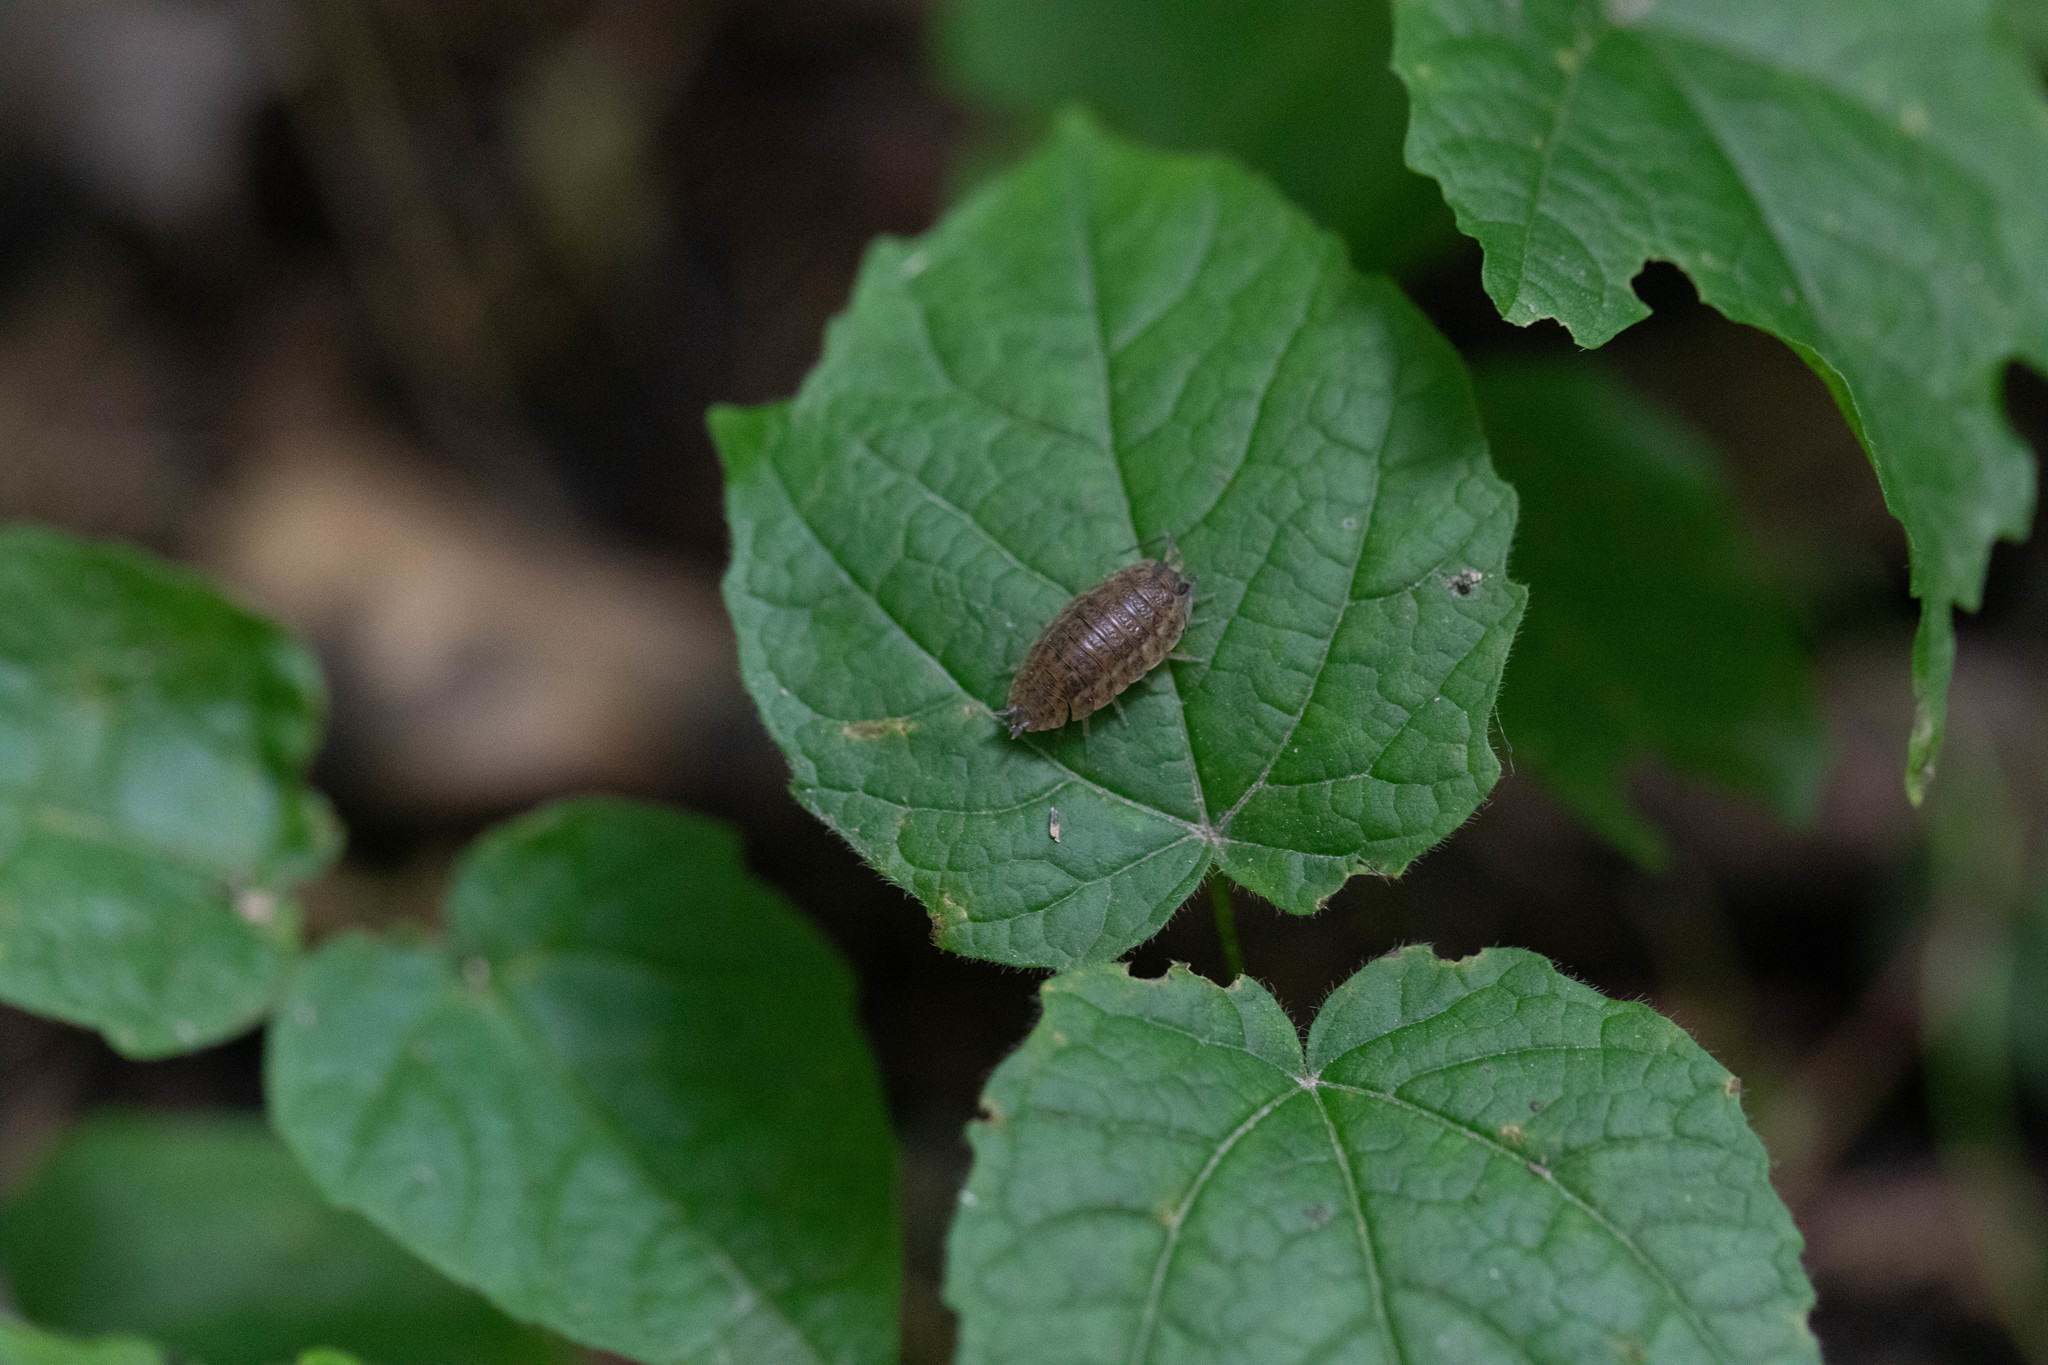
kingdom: Animalia
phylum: Arthropoda
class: Malacostraca
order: Isopoda
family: Trachelipodidae
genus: Trachelipus
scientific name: Trachelipus rathkii
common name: Isopod
